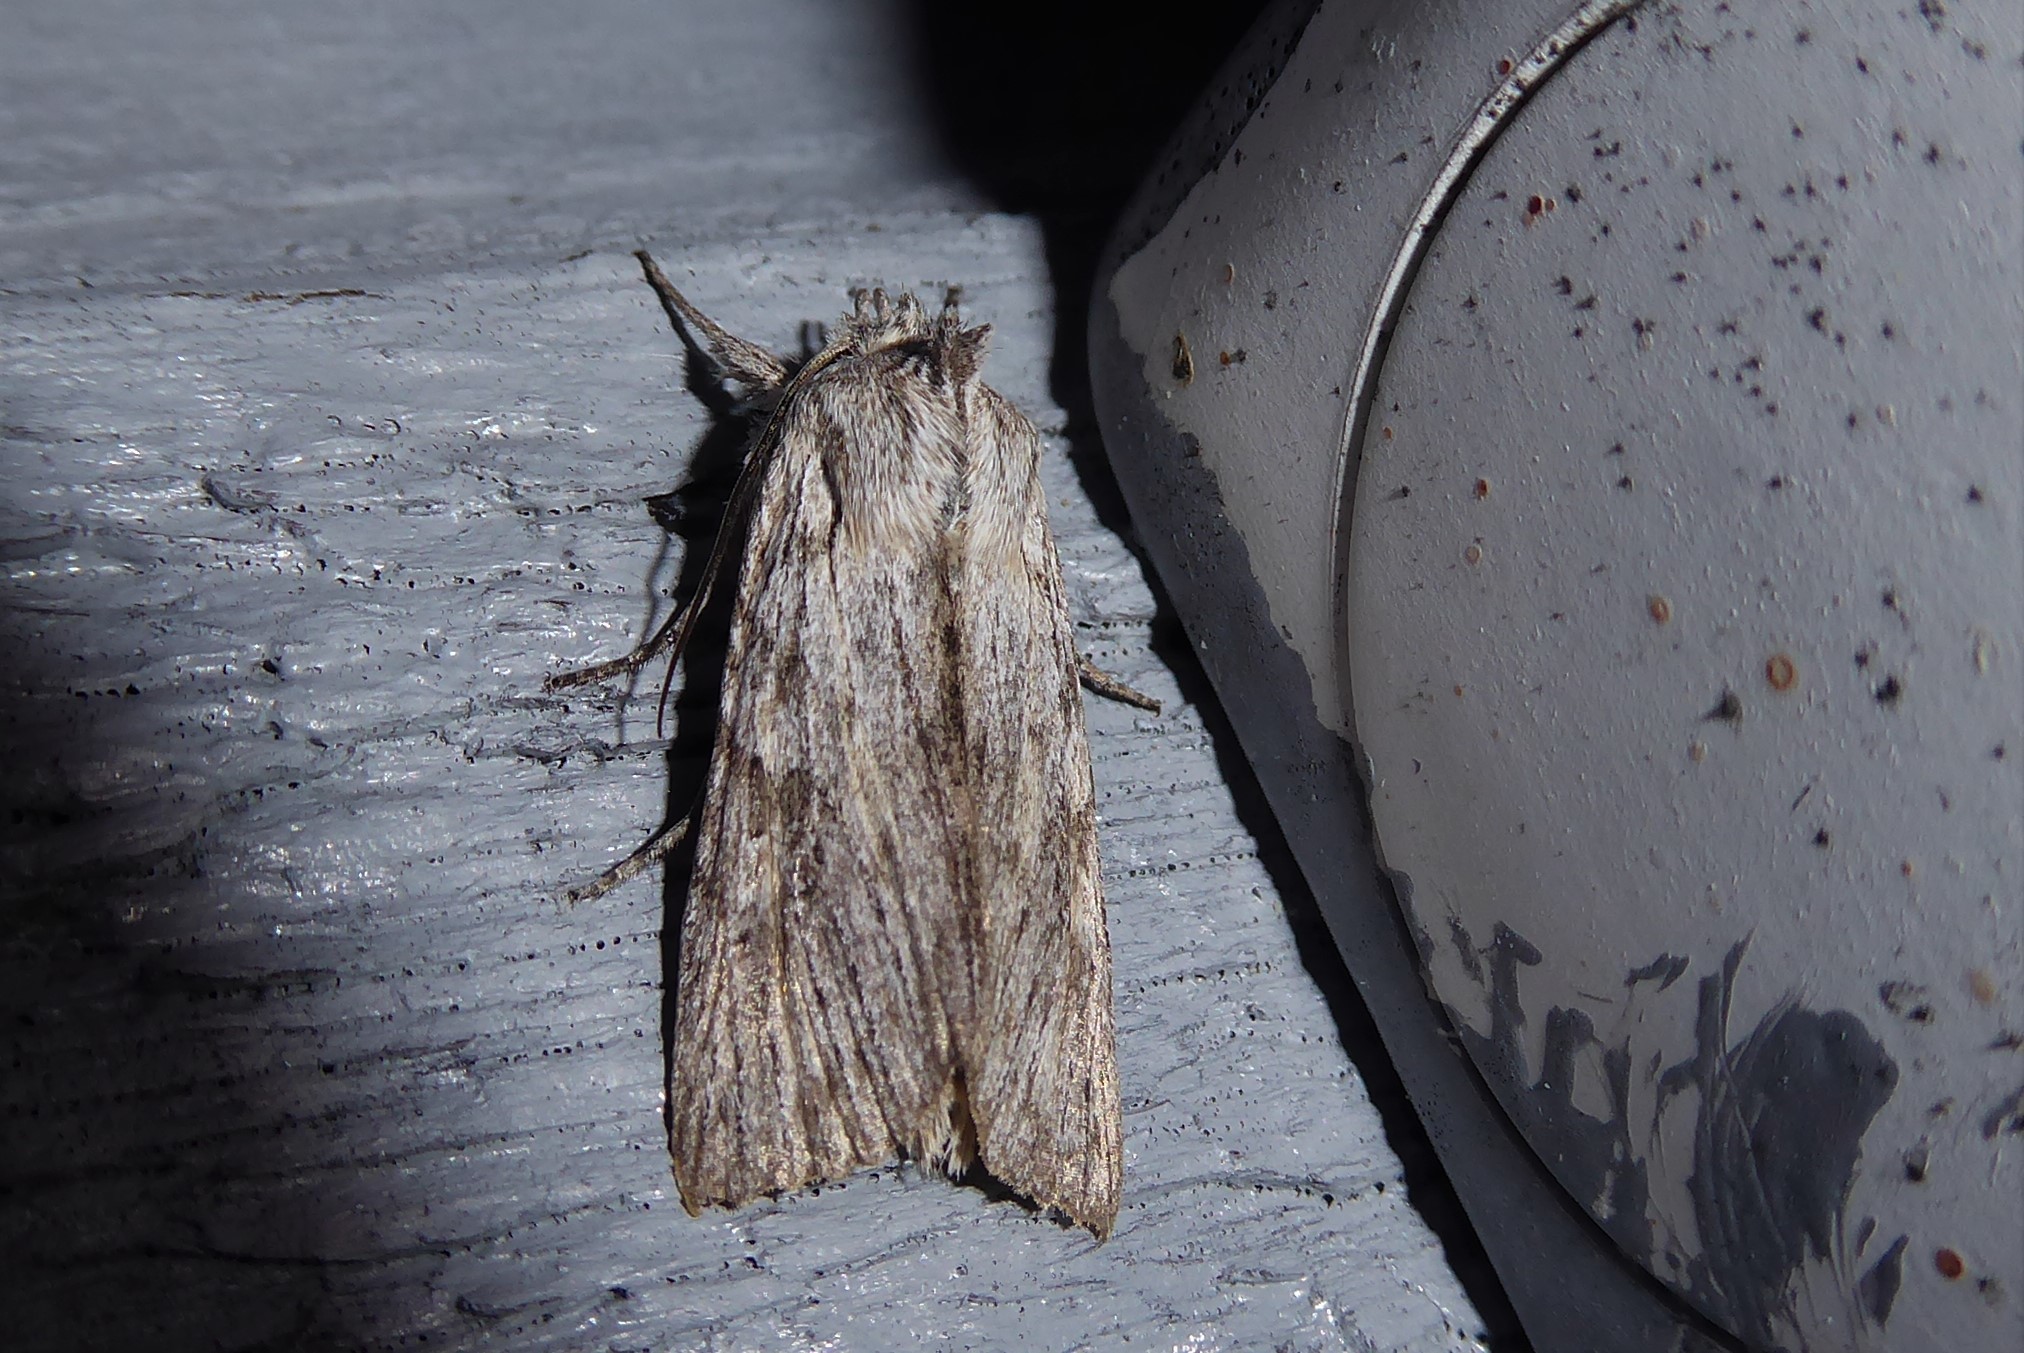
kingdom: Animalia
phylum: Arthropoda
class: Insecta
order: Lepidoptera
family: Noctuidae
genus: Physetica
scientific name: Physetica phricias
